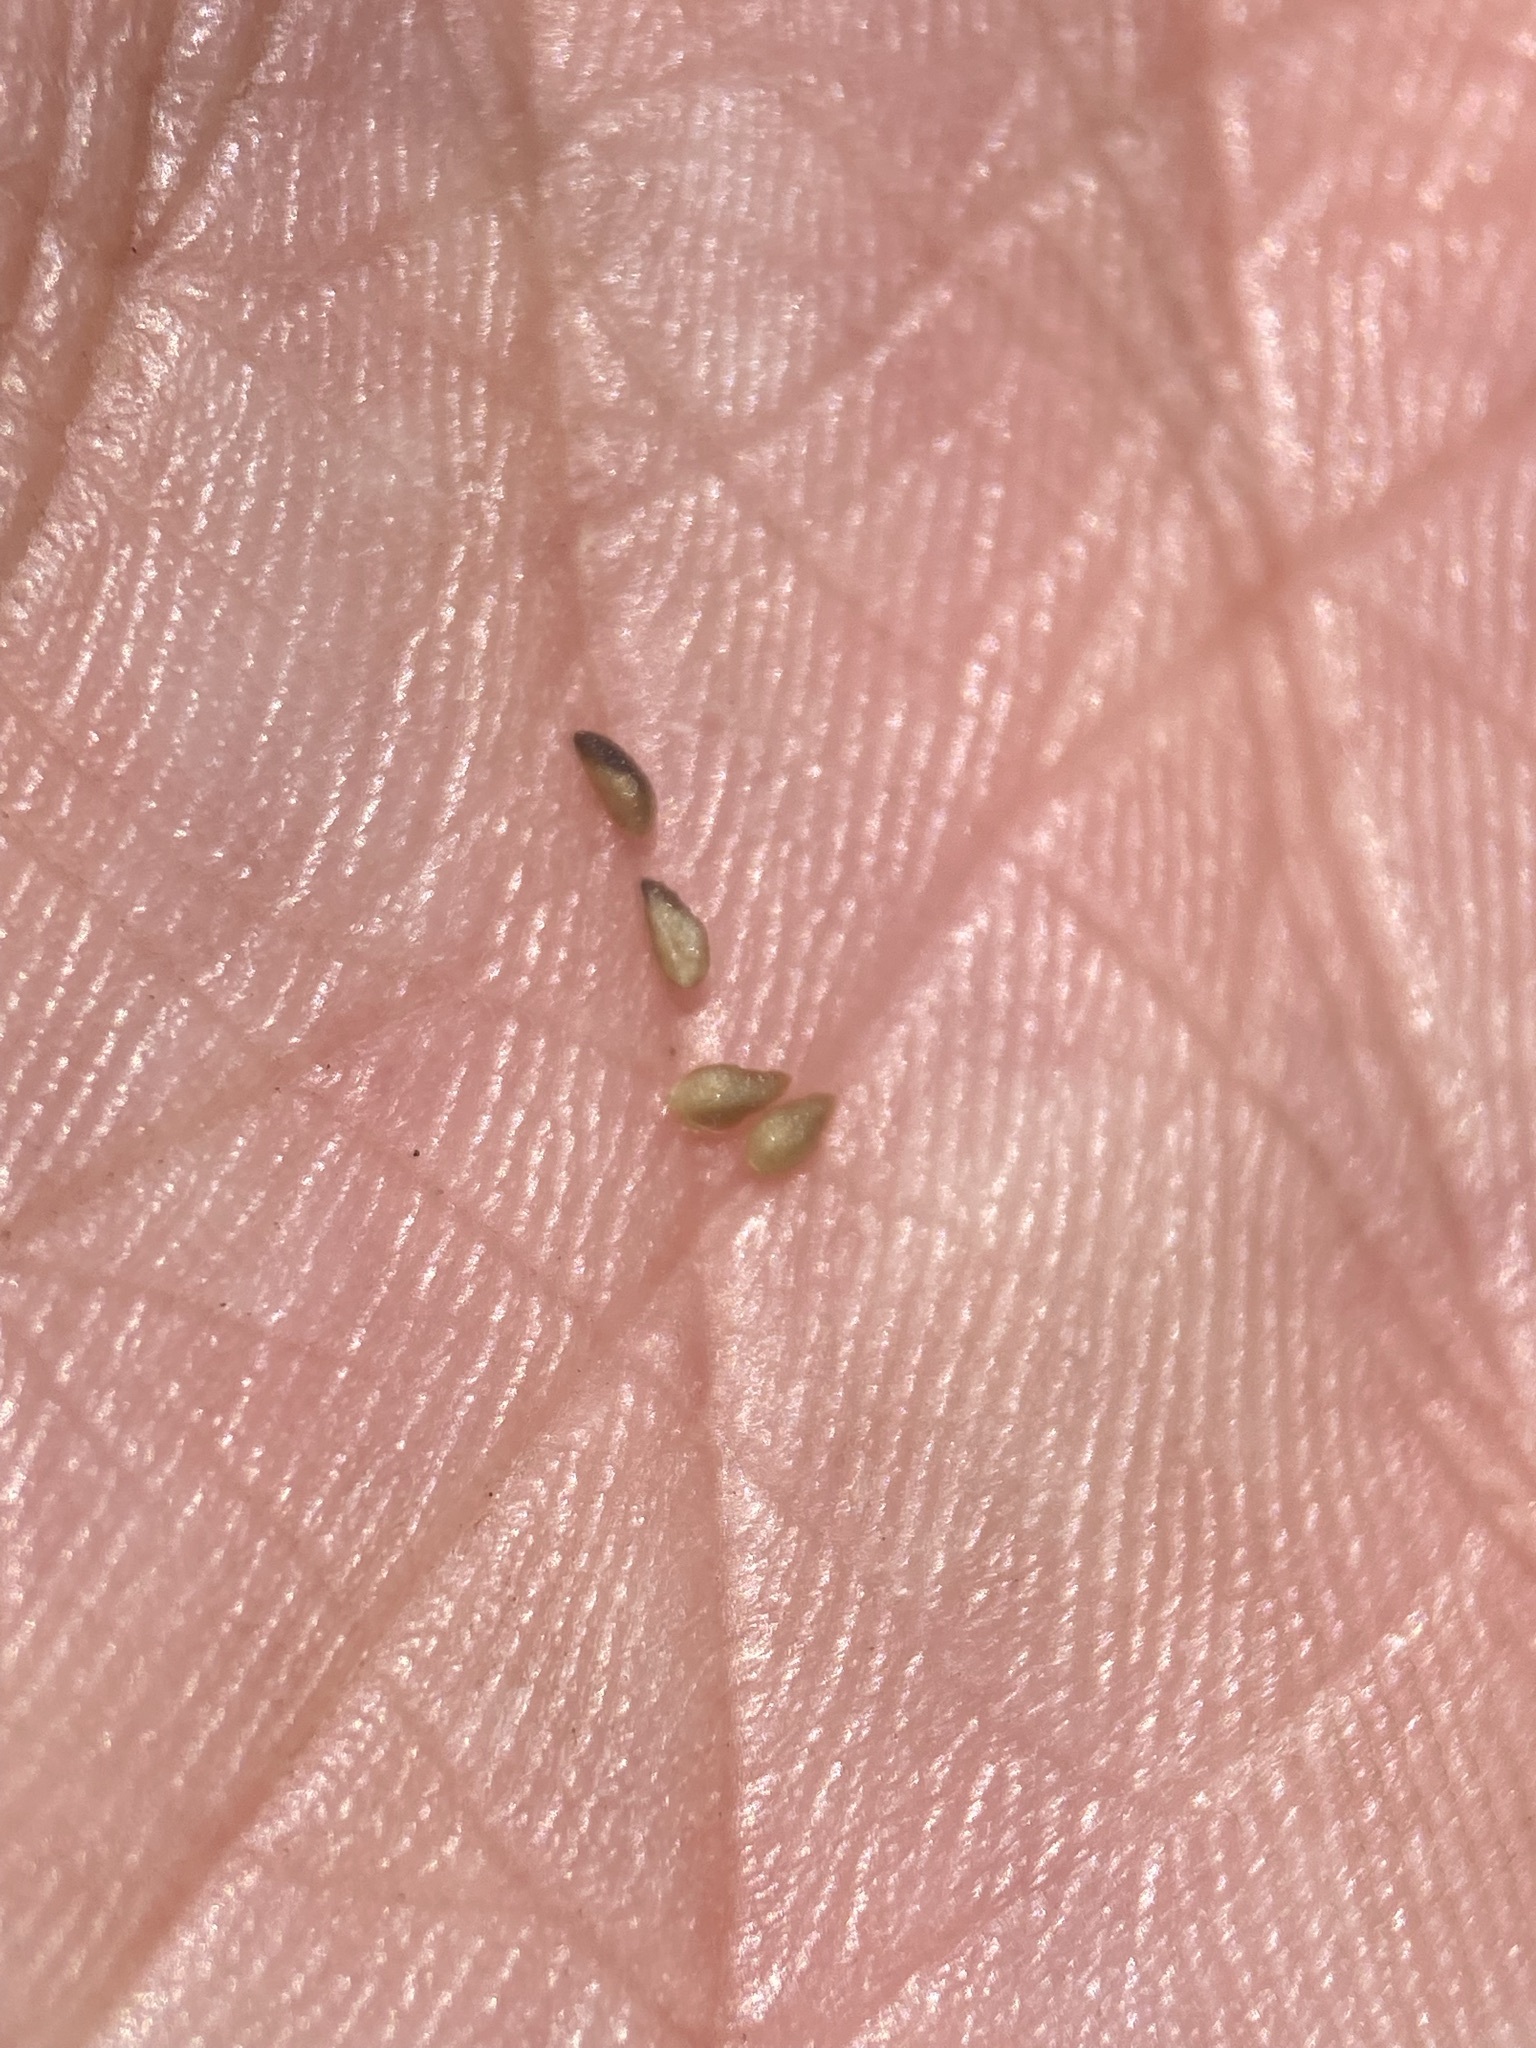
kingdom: Plantae
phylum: Tracheophyta
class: Magnoliopsida
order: Boraginales
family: Boraginaceae
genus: Plagiobothrys
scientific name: Plagiobothrys scouleri
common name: White forget-me-not
